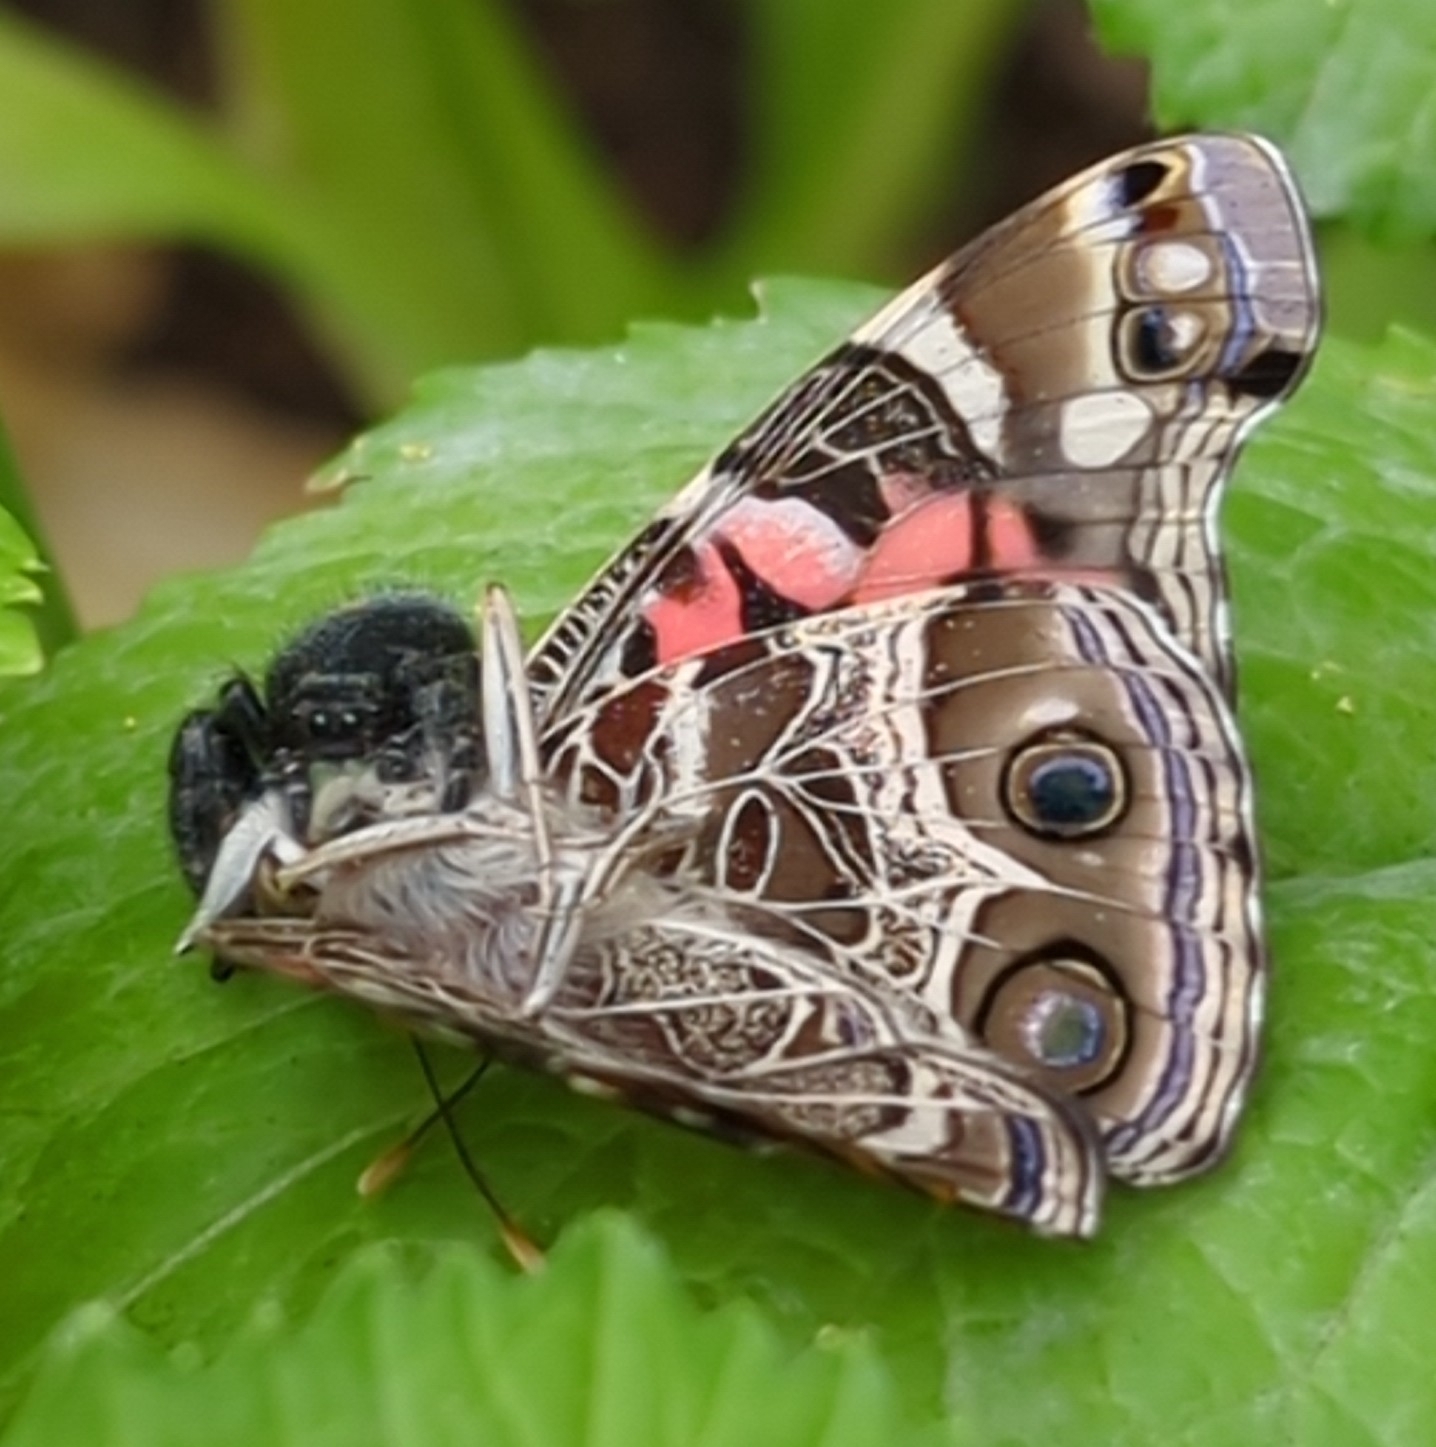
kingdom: Animalia
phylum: Arthropoda
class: Arachnida
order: Araneae
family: Salticidae
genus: Phidippus
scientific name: Phidippus audax
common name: Bold jumper
